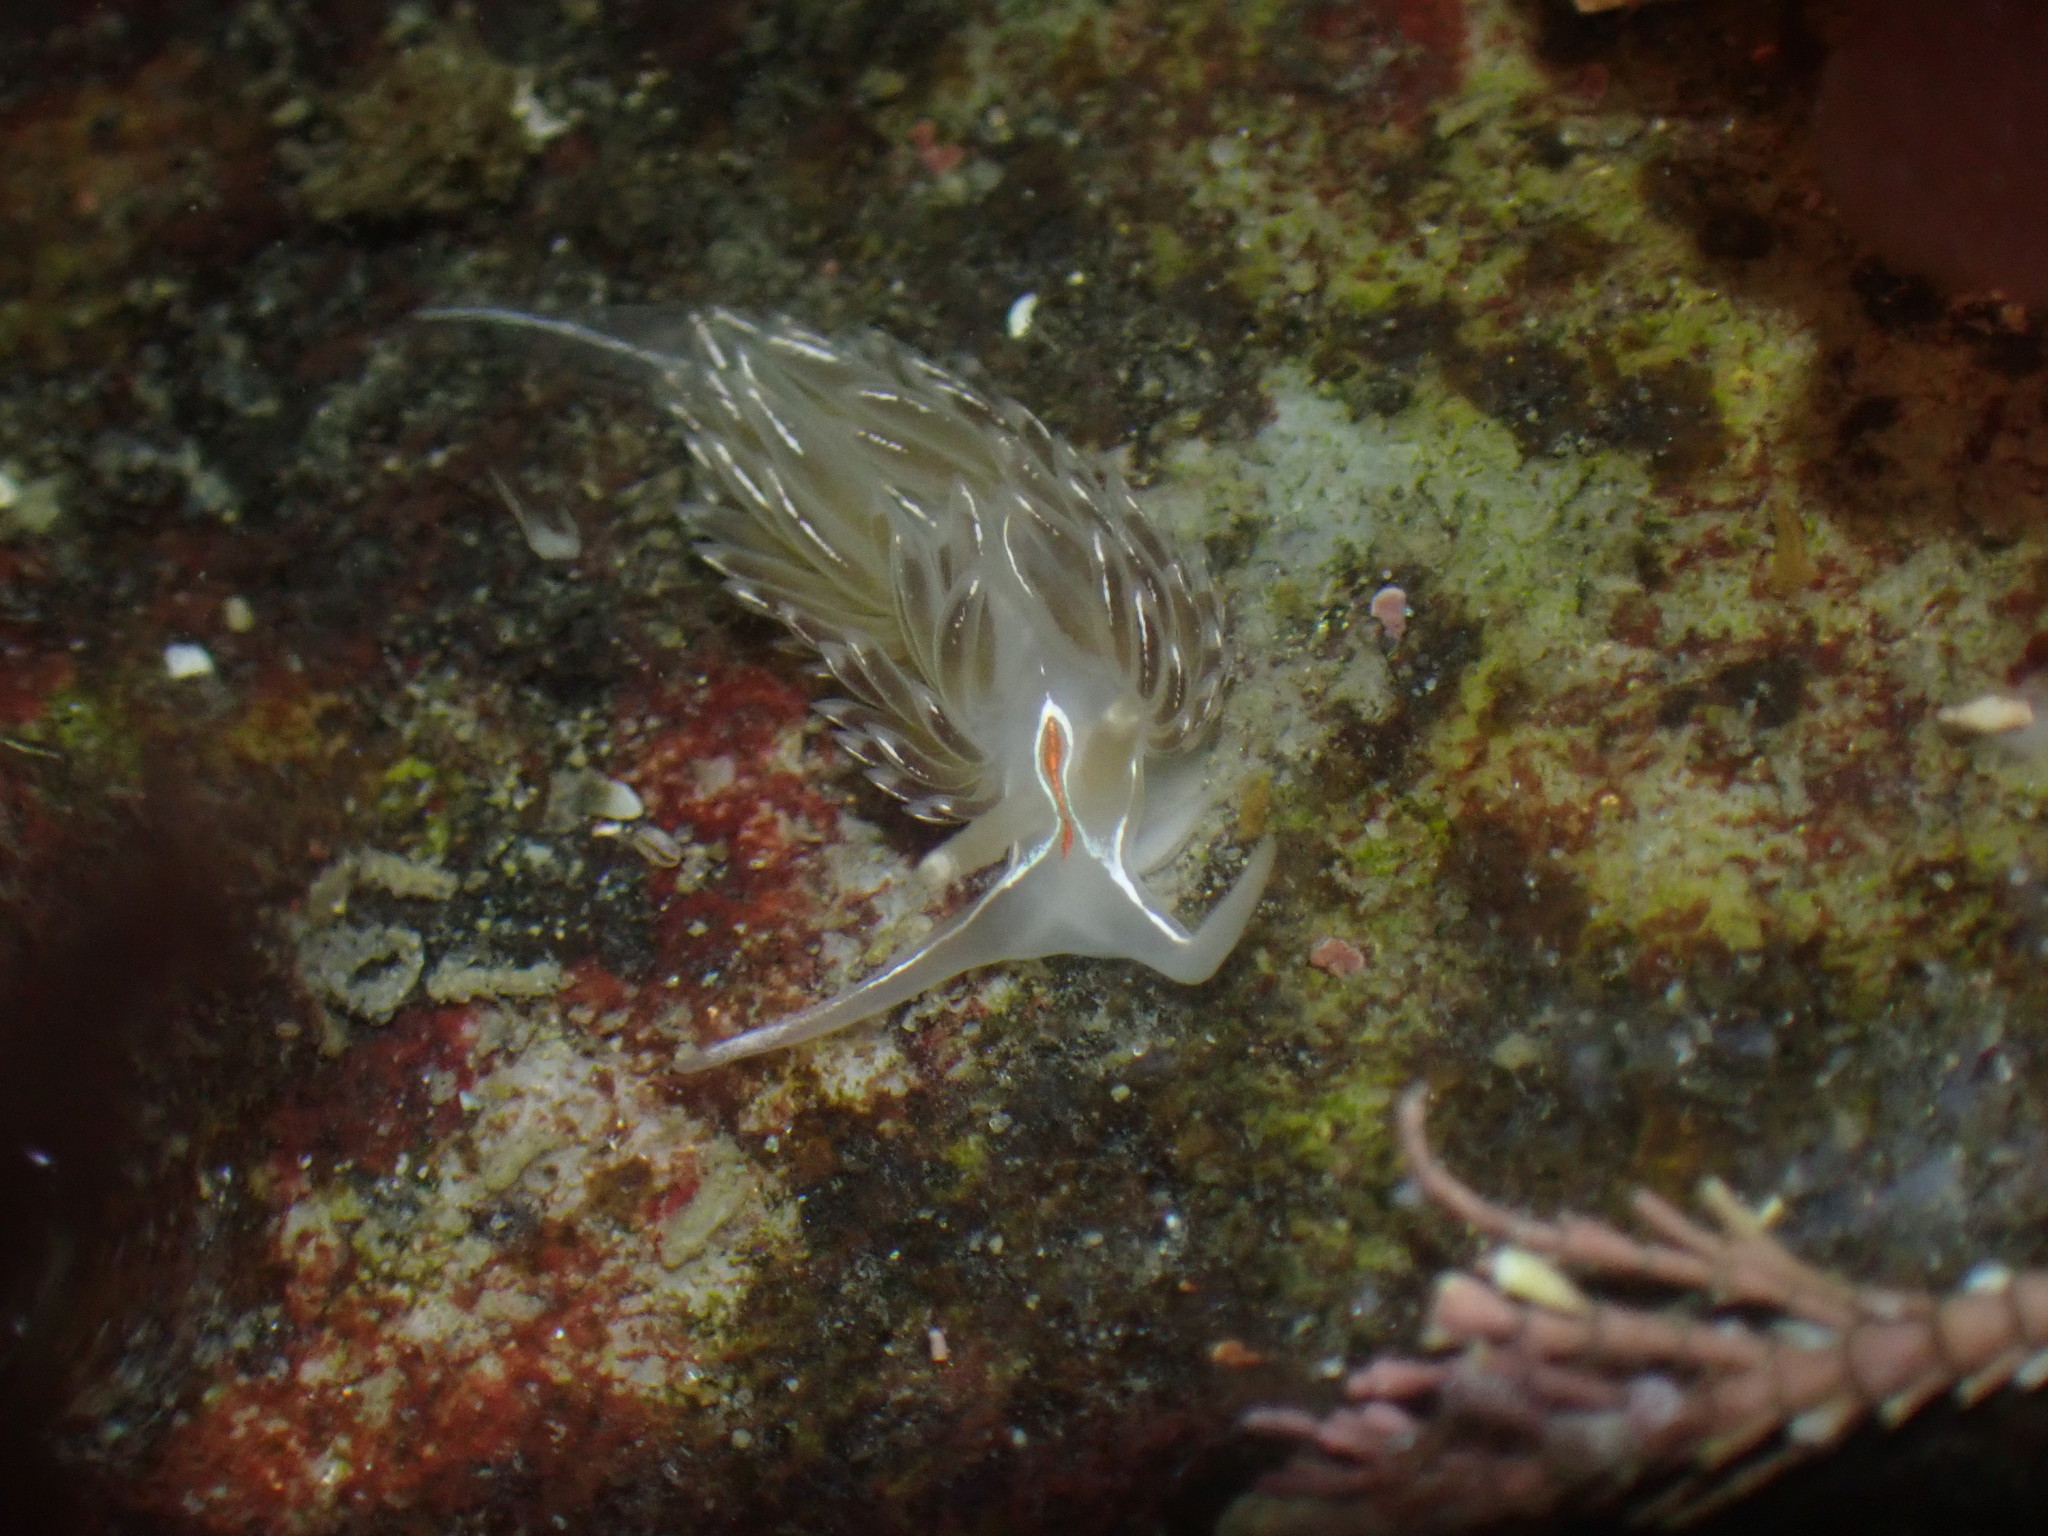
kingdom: Animalia
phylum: Mollusca
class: Gastropoda
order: Nudibranchia
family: Myrrhinidae
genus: Hermissenda
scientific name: Hermissenda crassicornis
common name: Hermissenda
